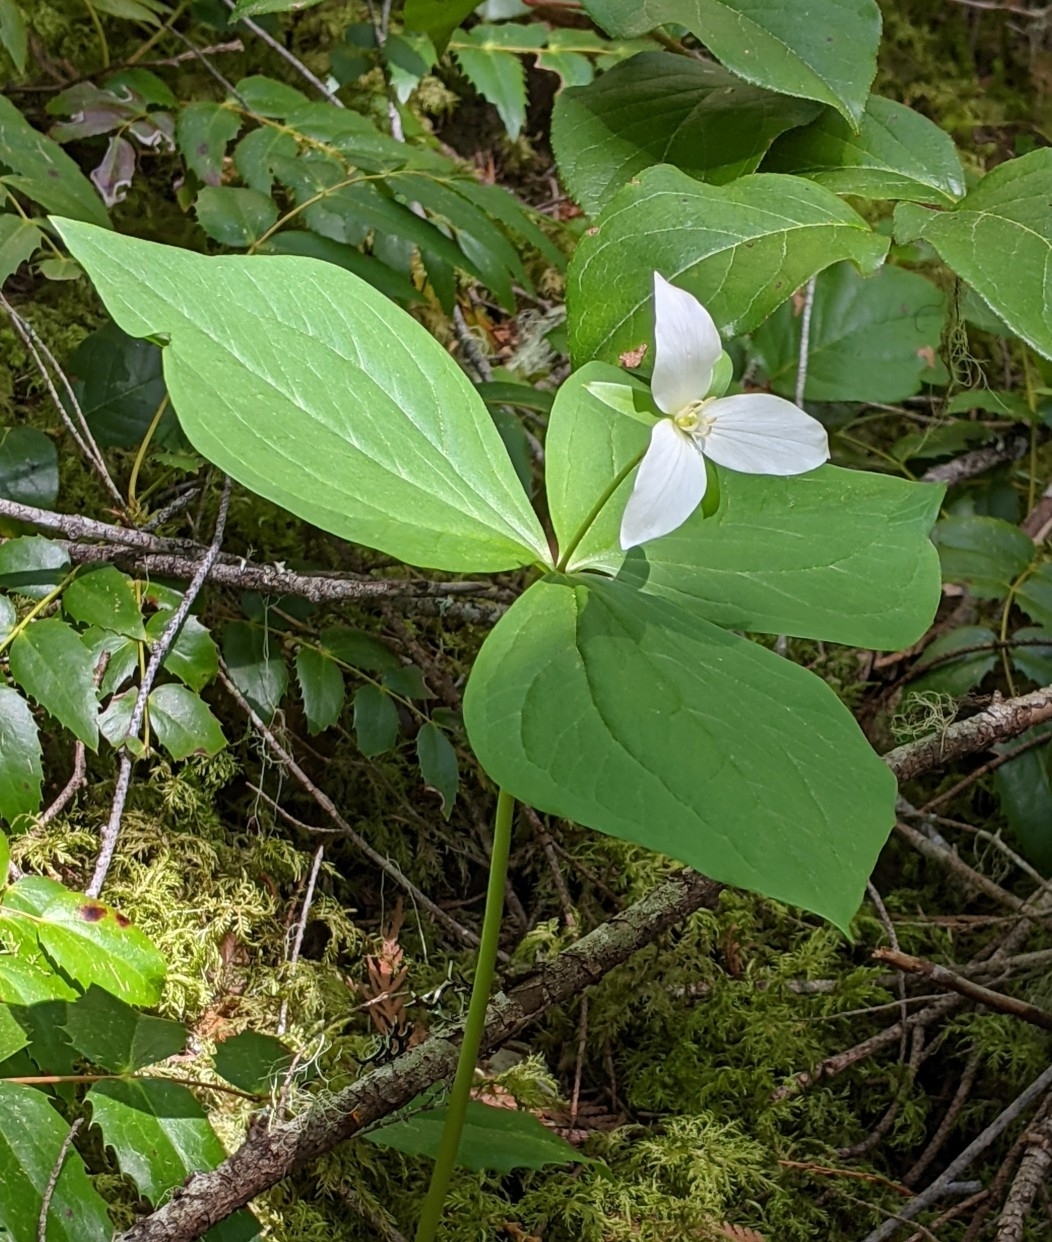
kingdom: Plantae
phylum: Tracheophyta
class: Liliopsida
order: Liliales
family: Melanthiaceae
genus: Trillium
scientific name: Trillium ovatum
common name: Pacific trillium
